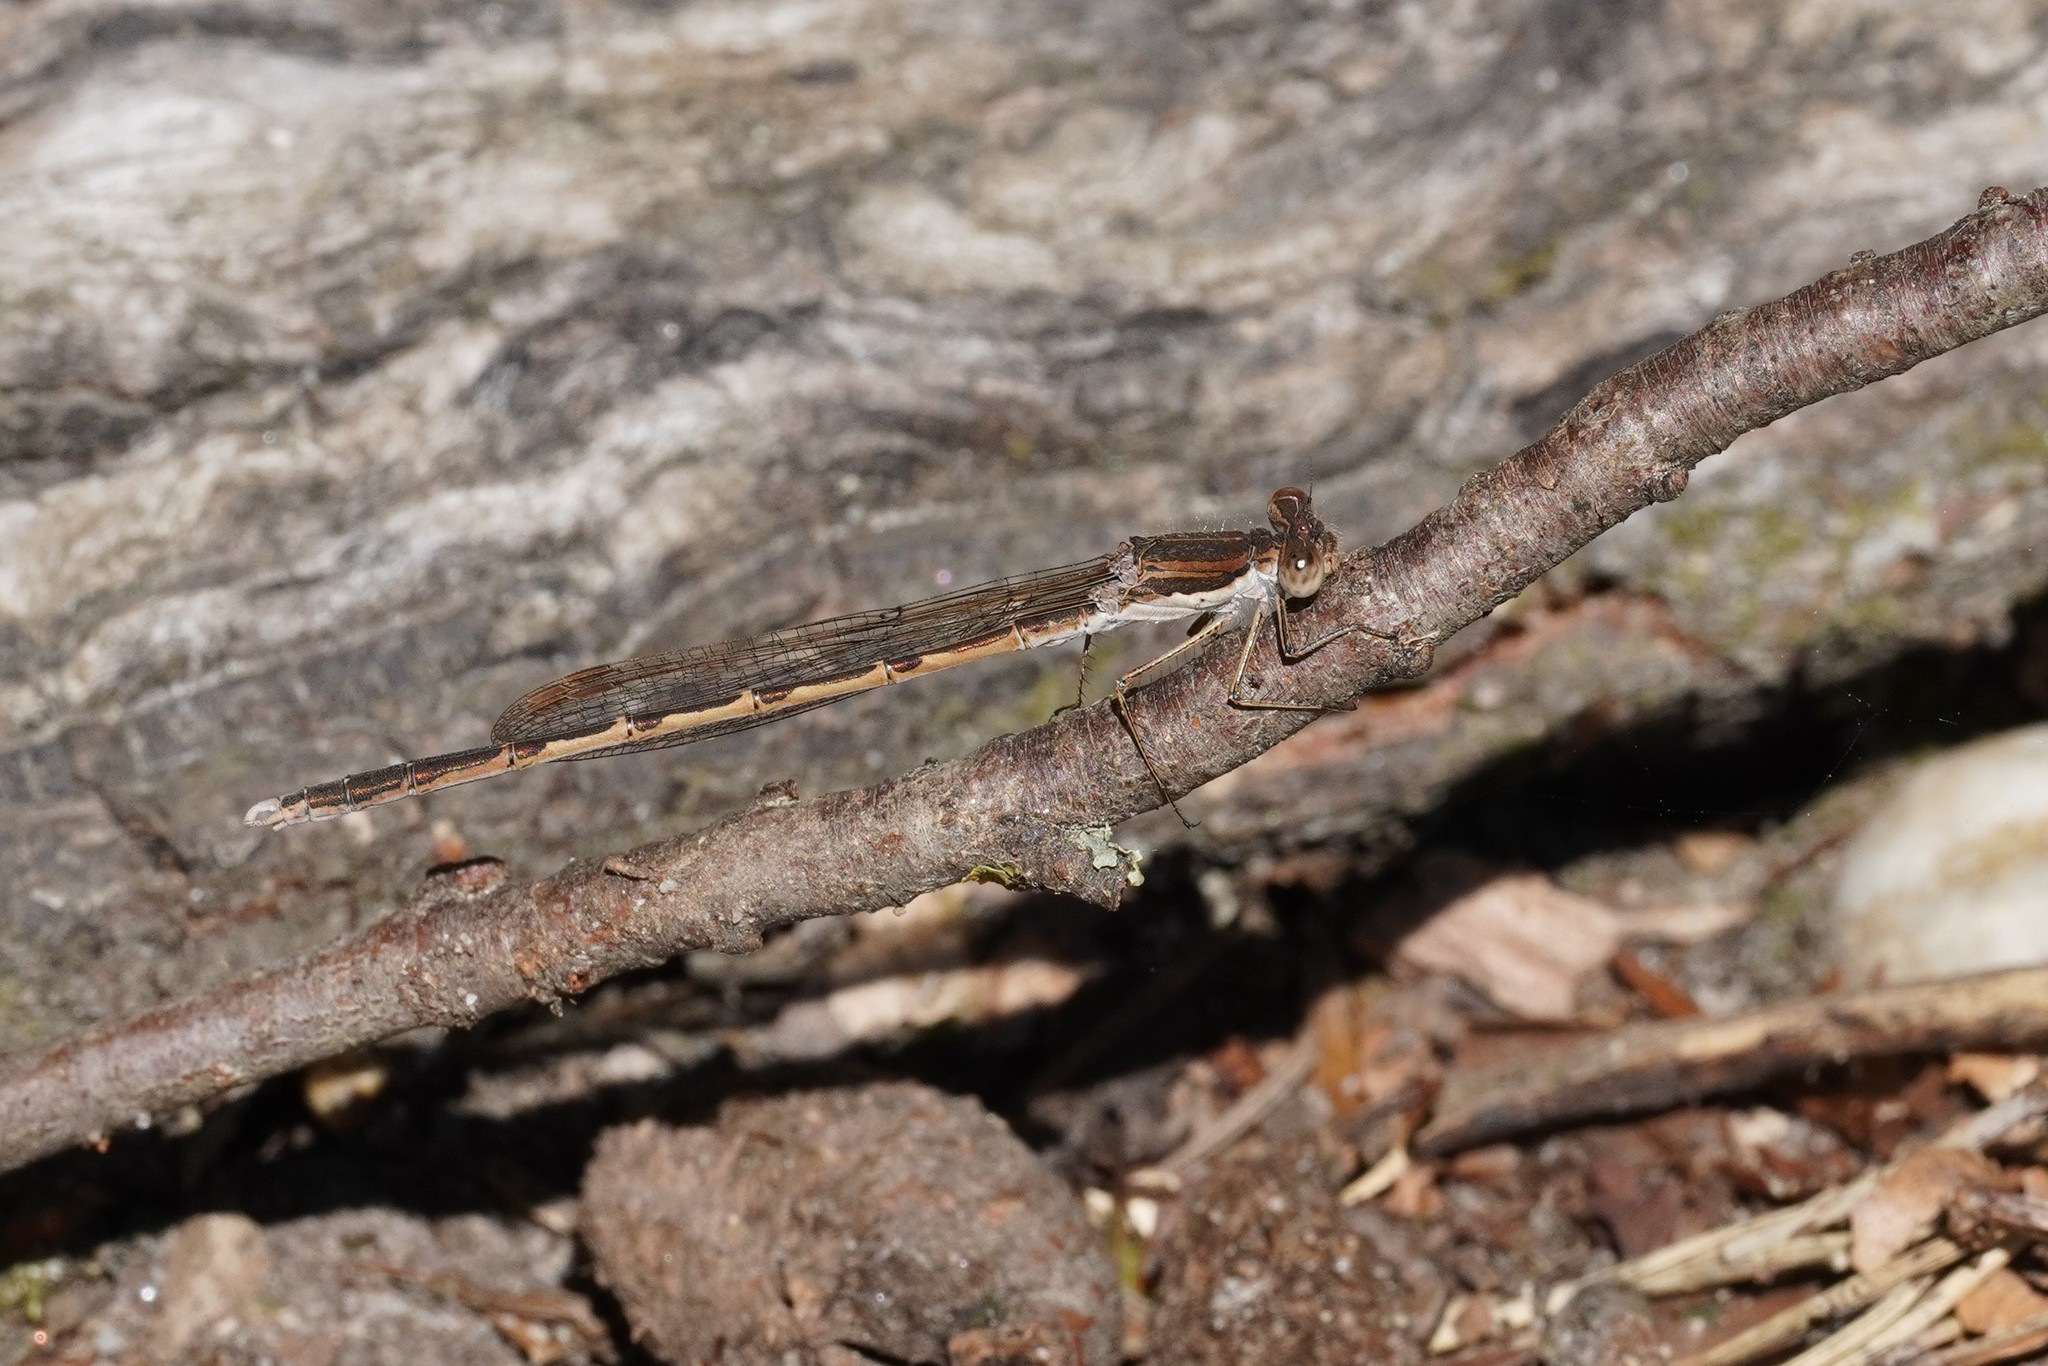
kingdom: Animalia
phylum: Arthropoda
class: Insecta
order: Odonata
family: Lestidae
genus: Sympecma
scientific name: Sympecma fusca
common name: Common winter damsel
